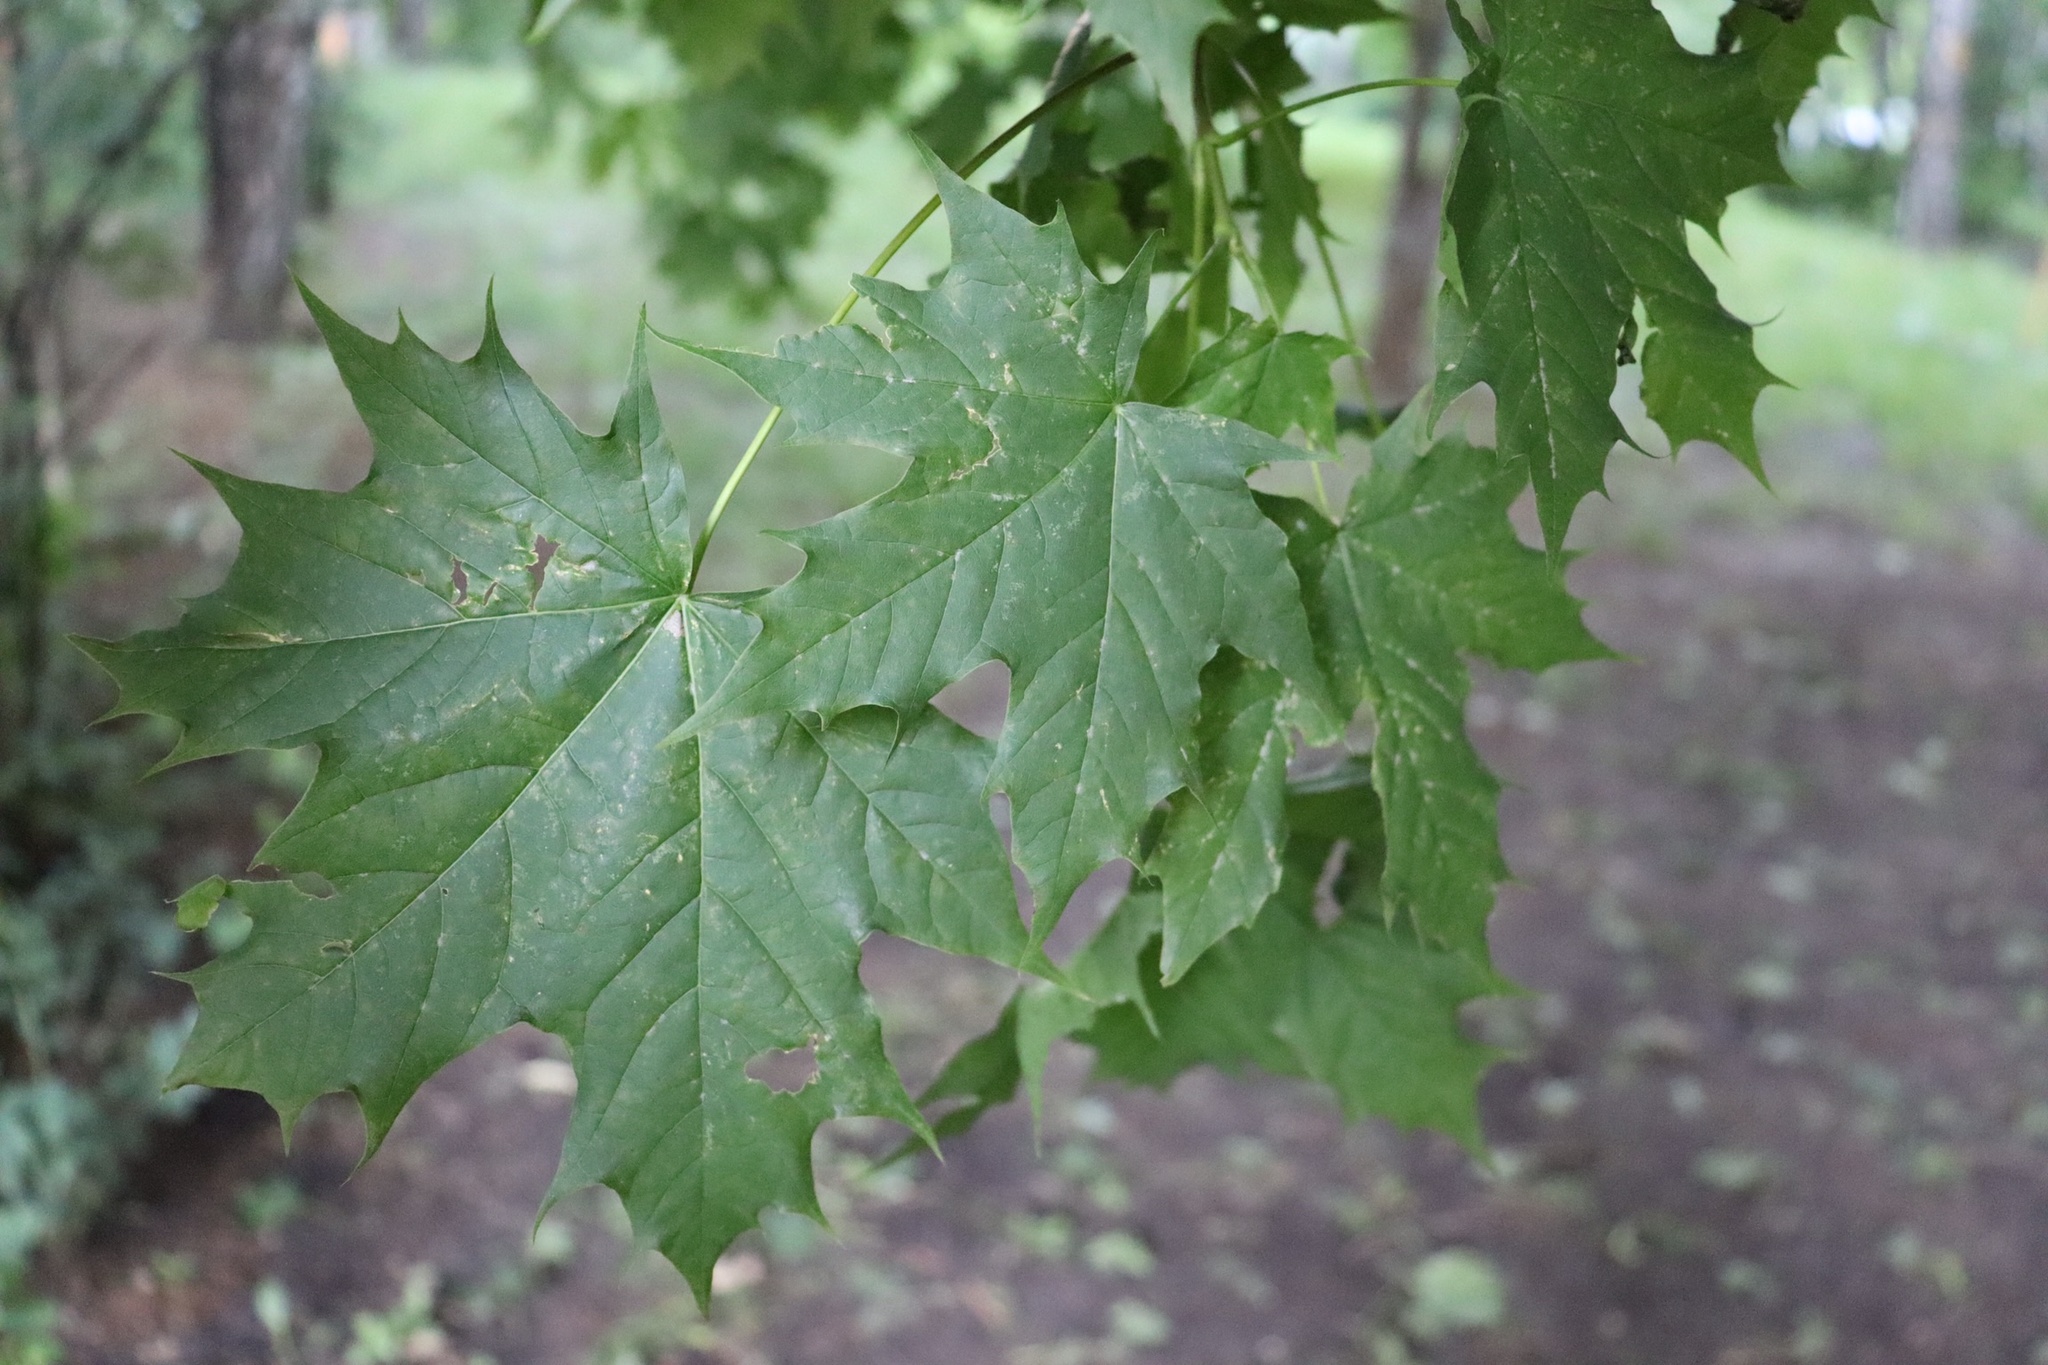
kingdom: Plantae
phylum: Tracheophyta
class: Magnoliopsida
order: Sapindales
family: Sapindaceae
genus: Acer
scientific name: Acer platanoides
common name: Norway maple
